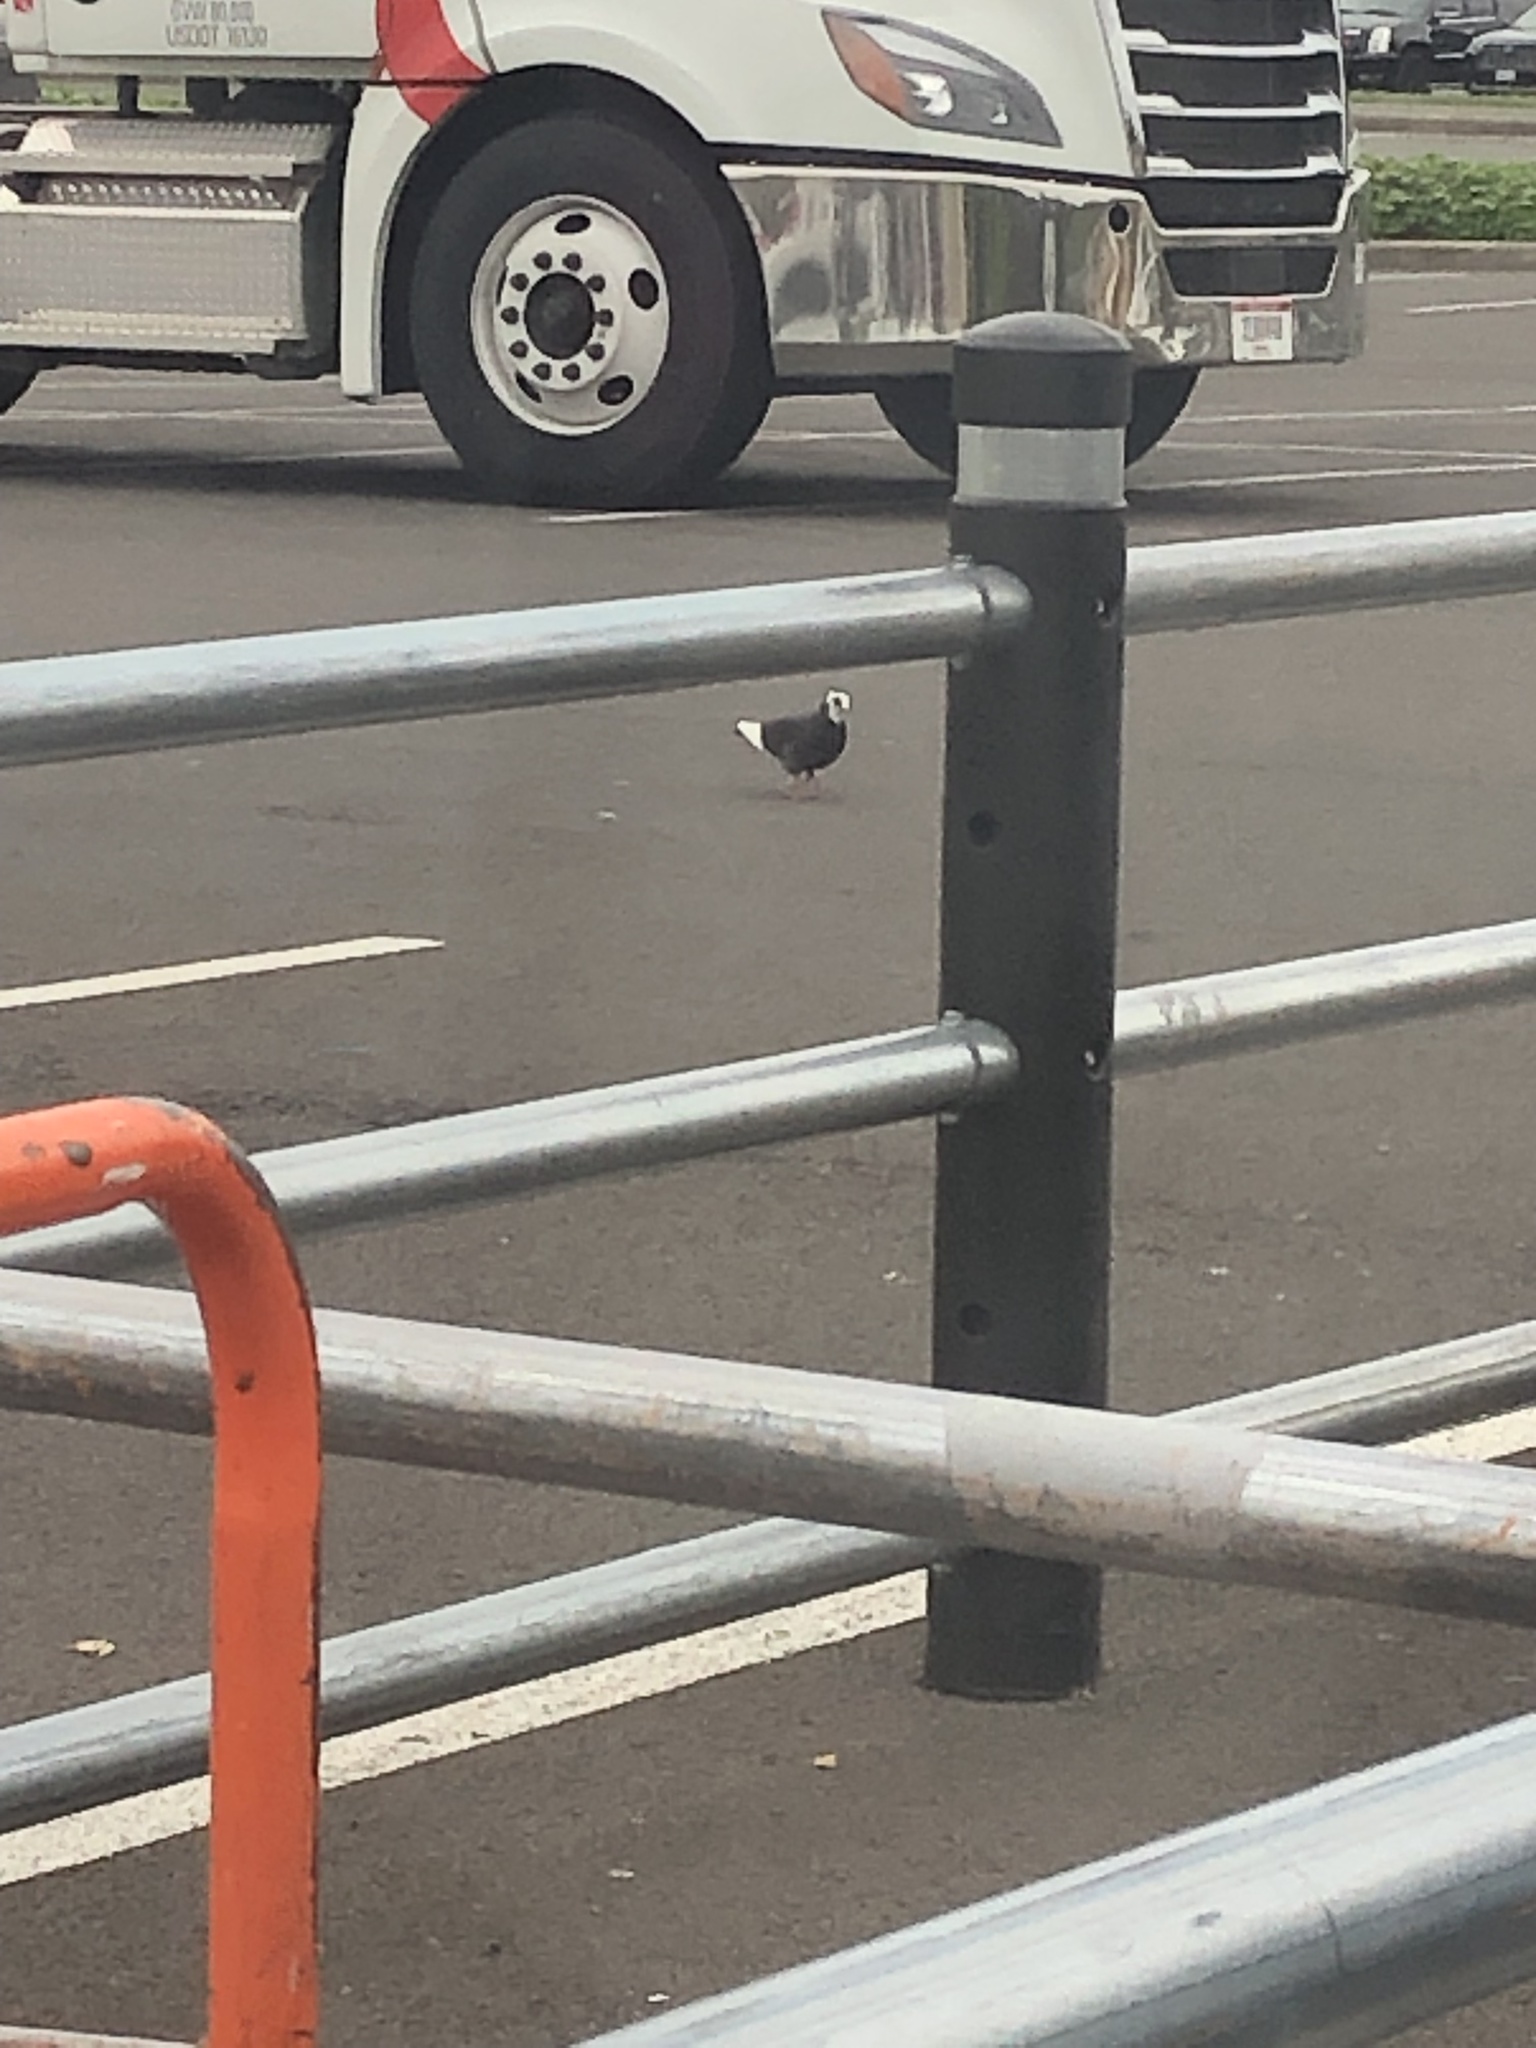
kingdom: Animalia
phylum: Chordata
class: Aves
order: Columbiformes
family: Columbidae
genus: Columba
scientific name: Columba livia
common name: Rock pigeon
